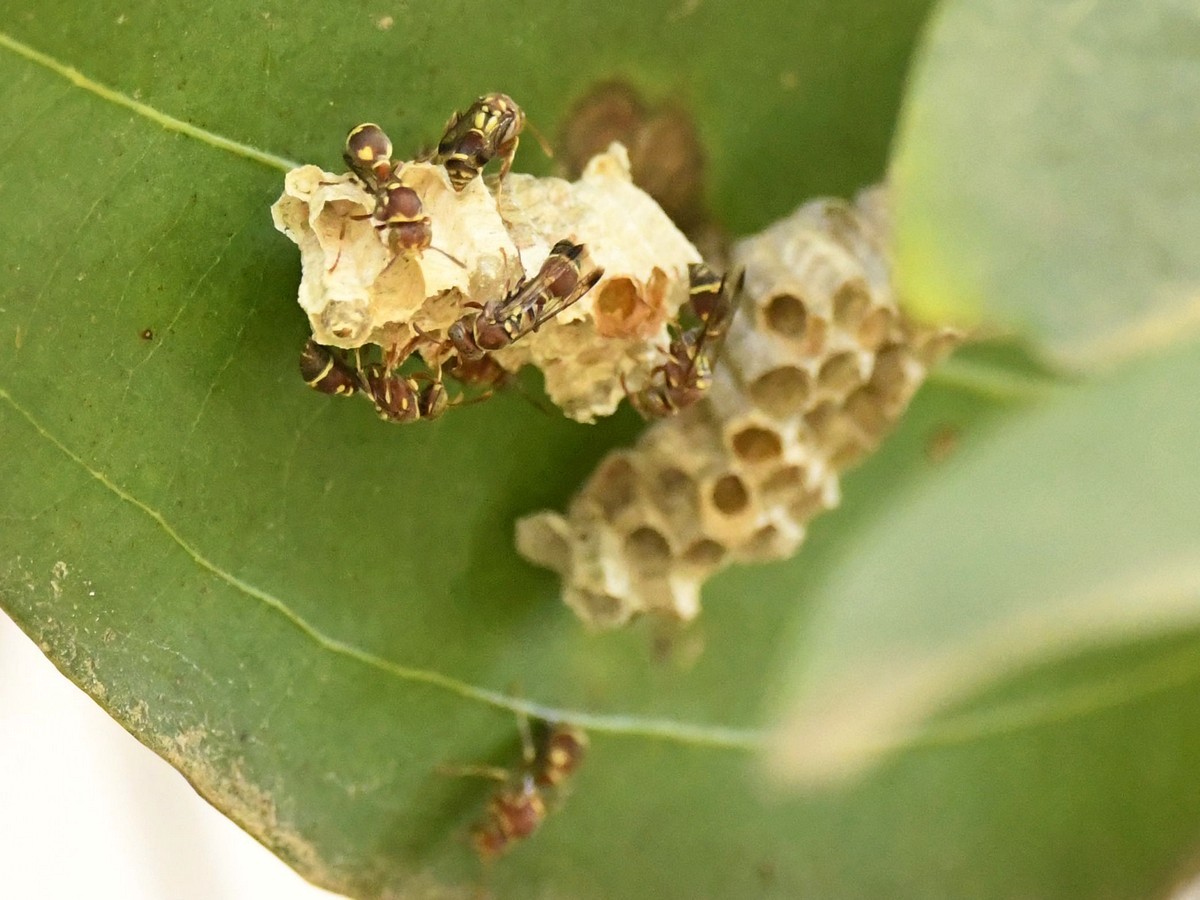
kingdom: Animalia
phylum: Arthropoda
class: Insecta
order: Hymenoptera
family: Vespidae
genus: Ropalidia
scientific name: Ropalidia cyathiformis
